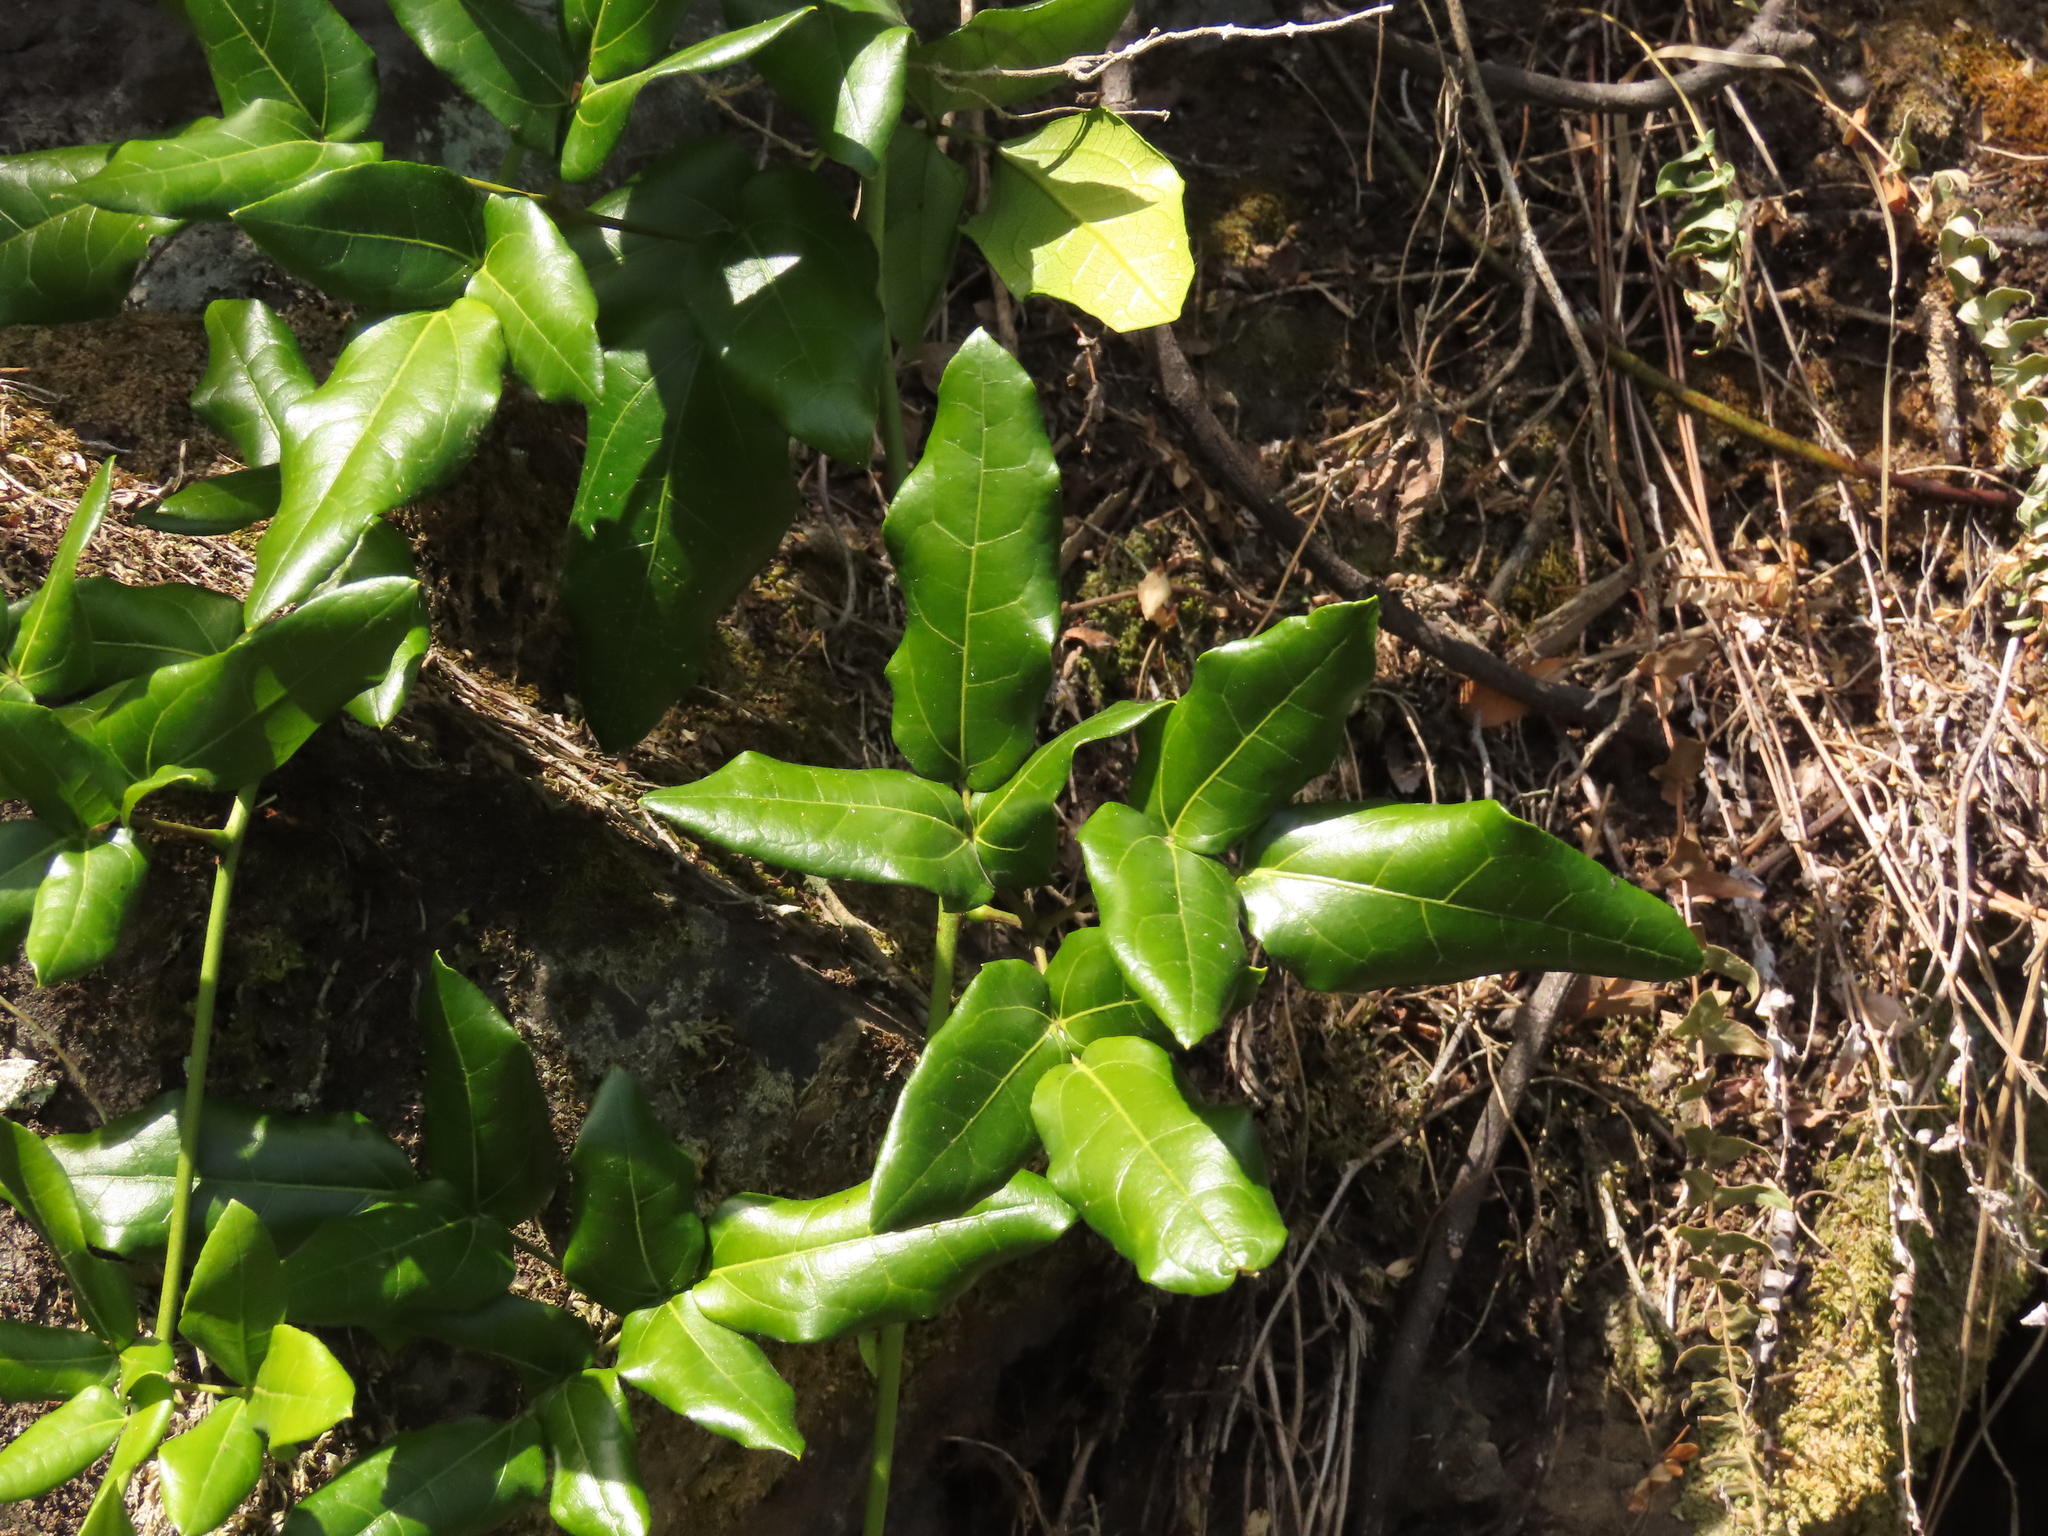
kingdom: Plantae
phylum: Tracheophyta
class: Magnoliopsida
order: Ranunculales
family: Lardizabalaceae
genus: Lardizabala
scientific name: Lardizabala funaria
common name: Zabala
